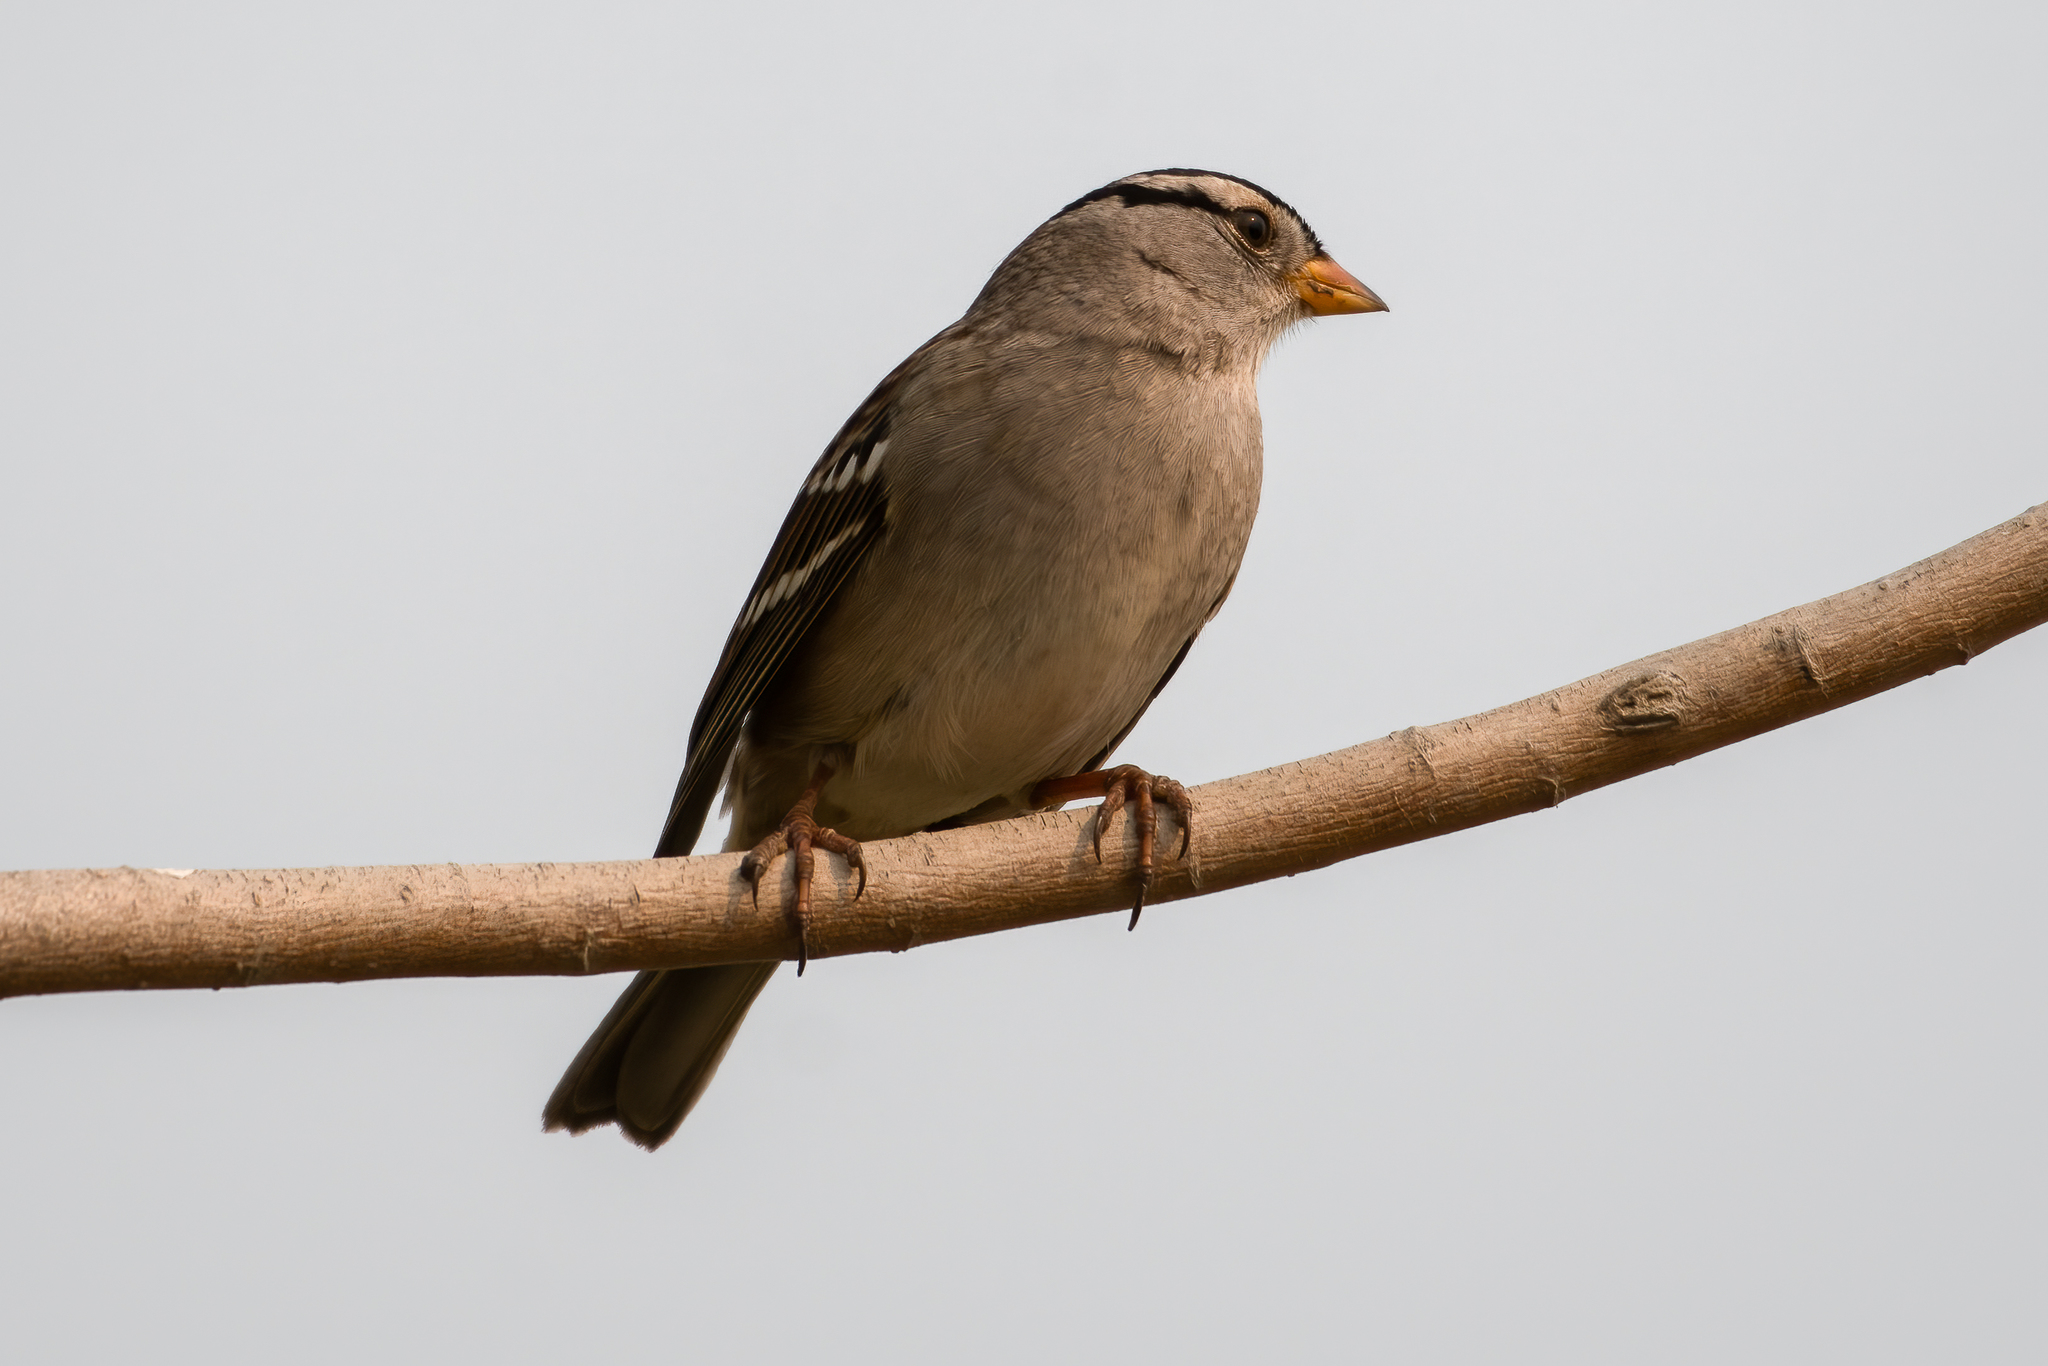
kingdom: Animalia
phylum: Chordata
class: Aves
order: Passeriformes
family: Passerellidae
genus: Zonotrichia
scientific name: Zonotrichia leucophrys
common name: White-crowned sparrow
